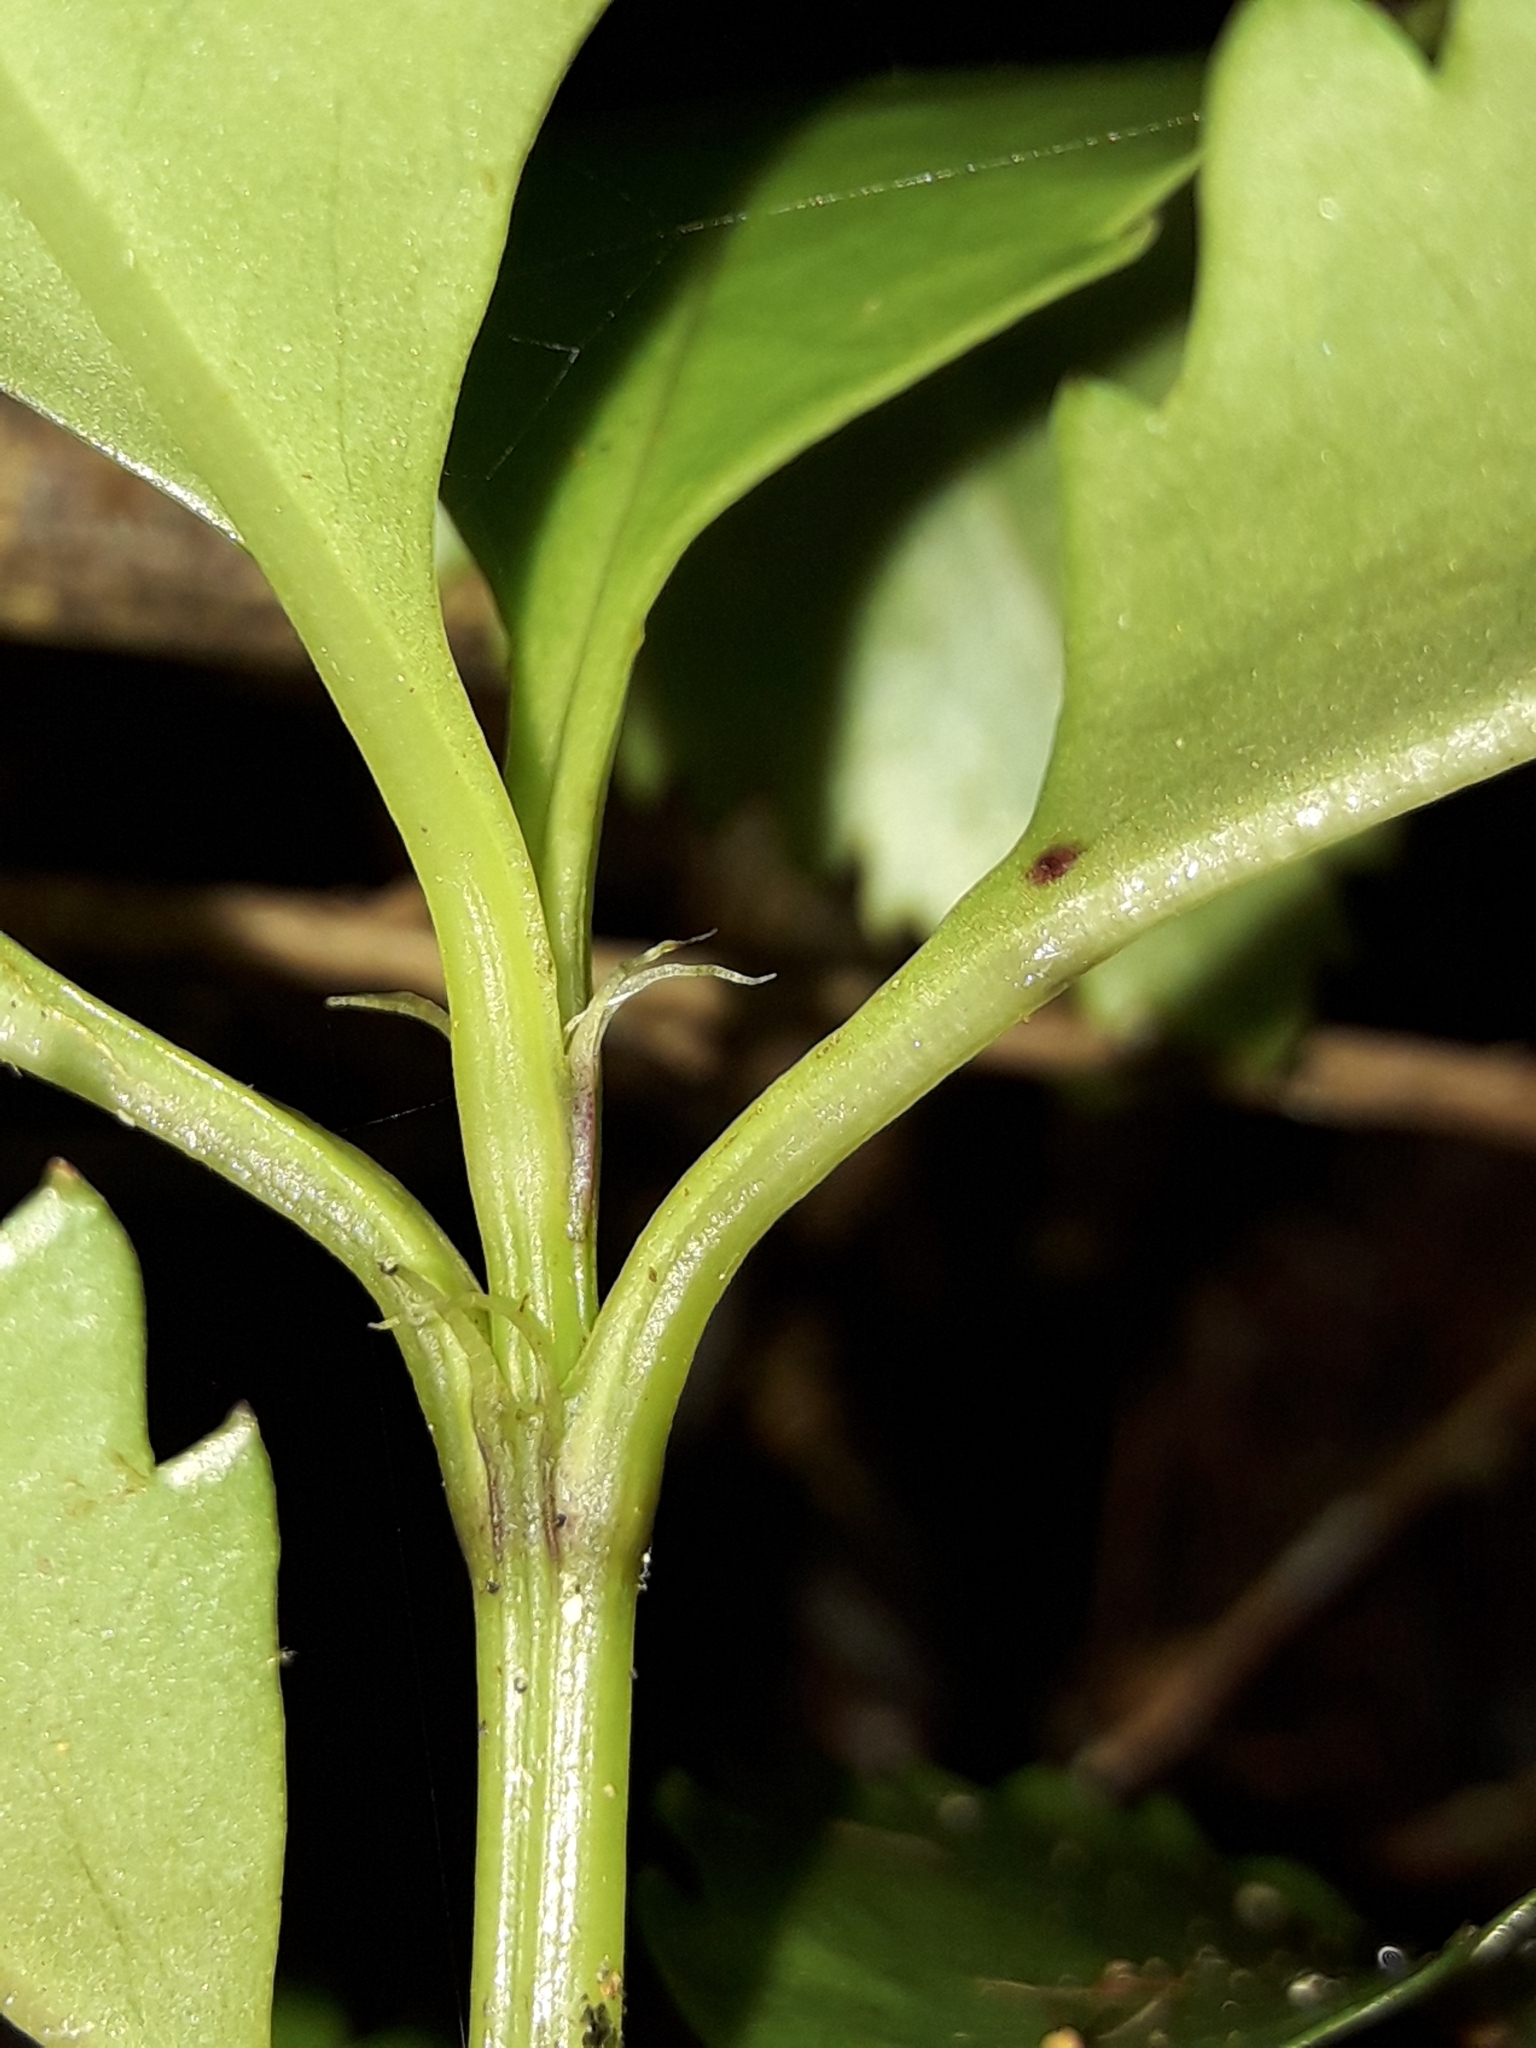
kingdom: Plantae
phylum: Tracheophyta
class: Magnoliopsida
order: Chloranthales
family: Chloranthaceae
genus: Ascarina
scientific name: Ascarina lucida
